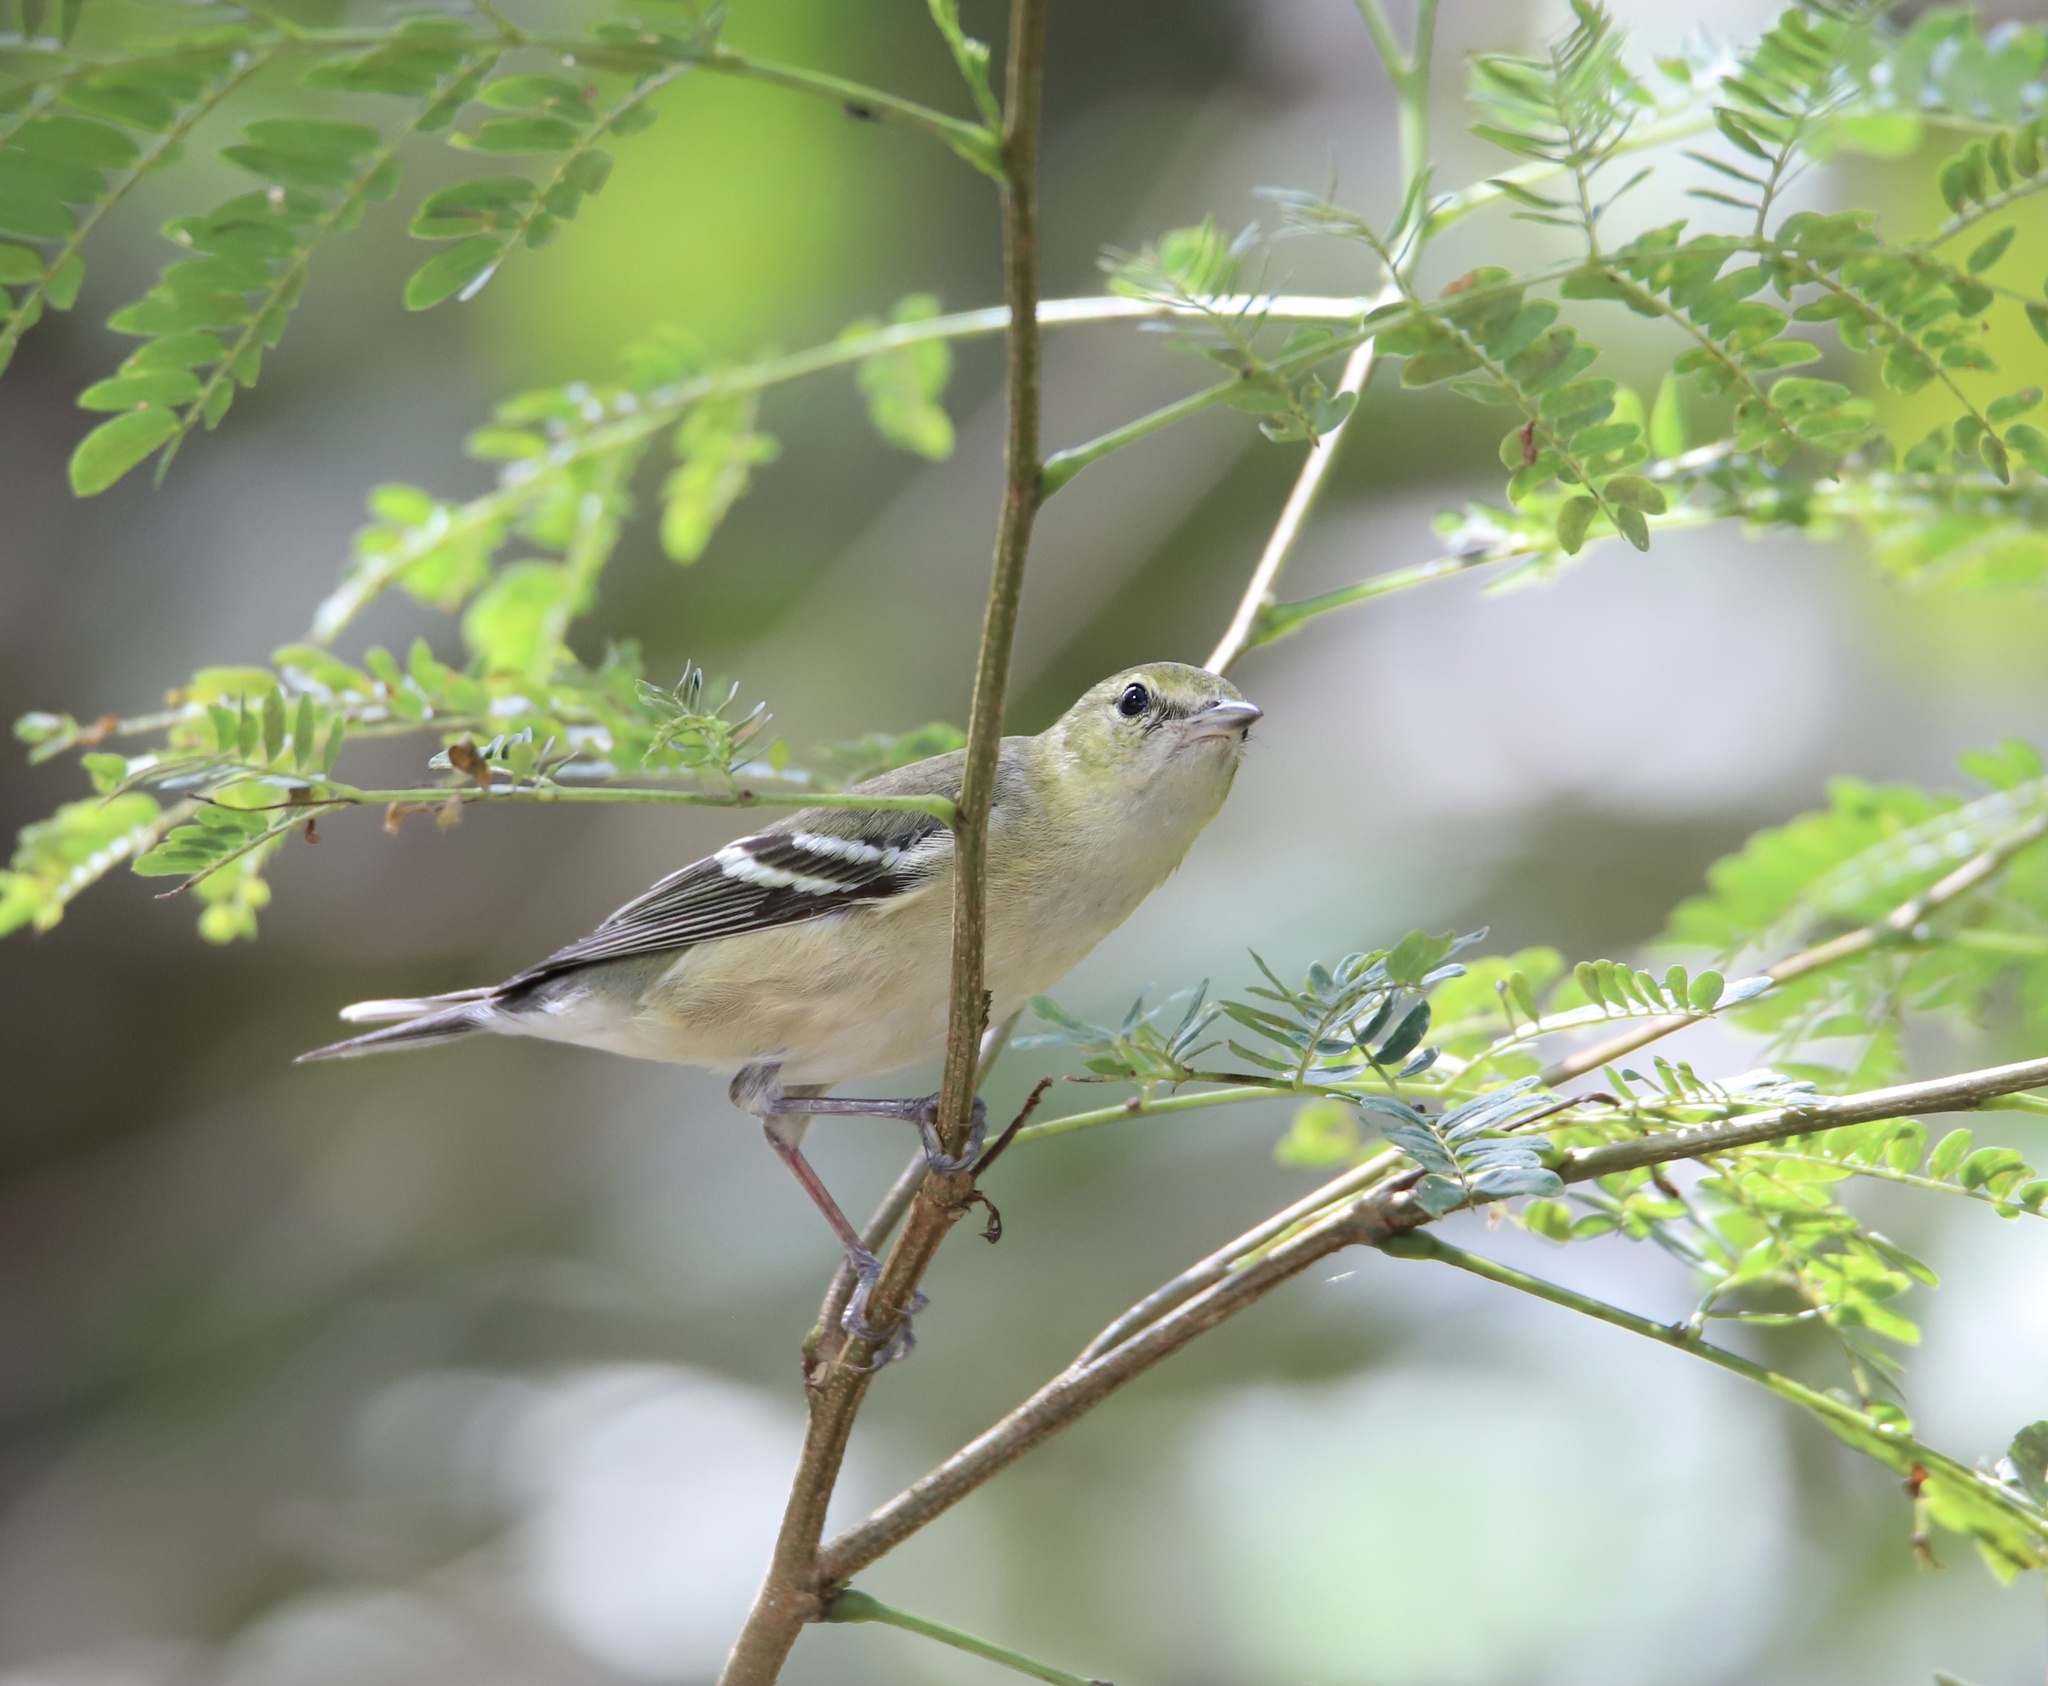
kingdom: Animalia
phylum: Chordata
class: Aves
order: Passeriformes
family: Parulidae
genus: Setophaga
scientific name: Setophaga castanea
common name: Bay-breasted warbler
